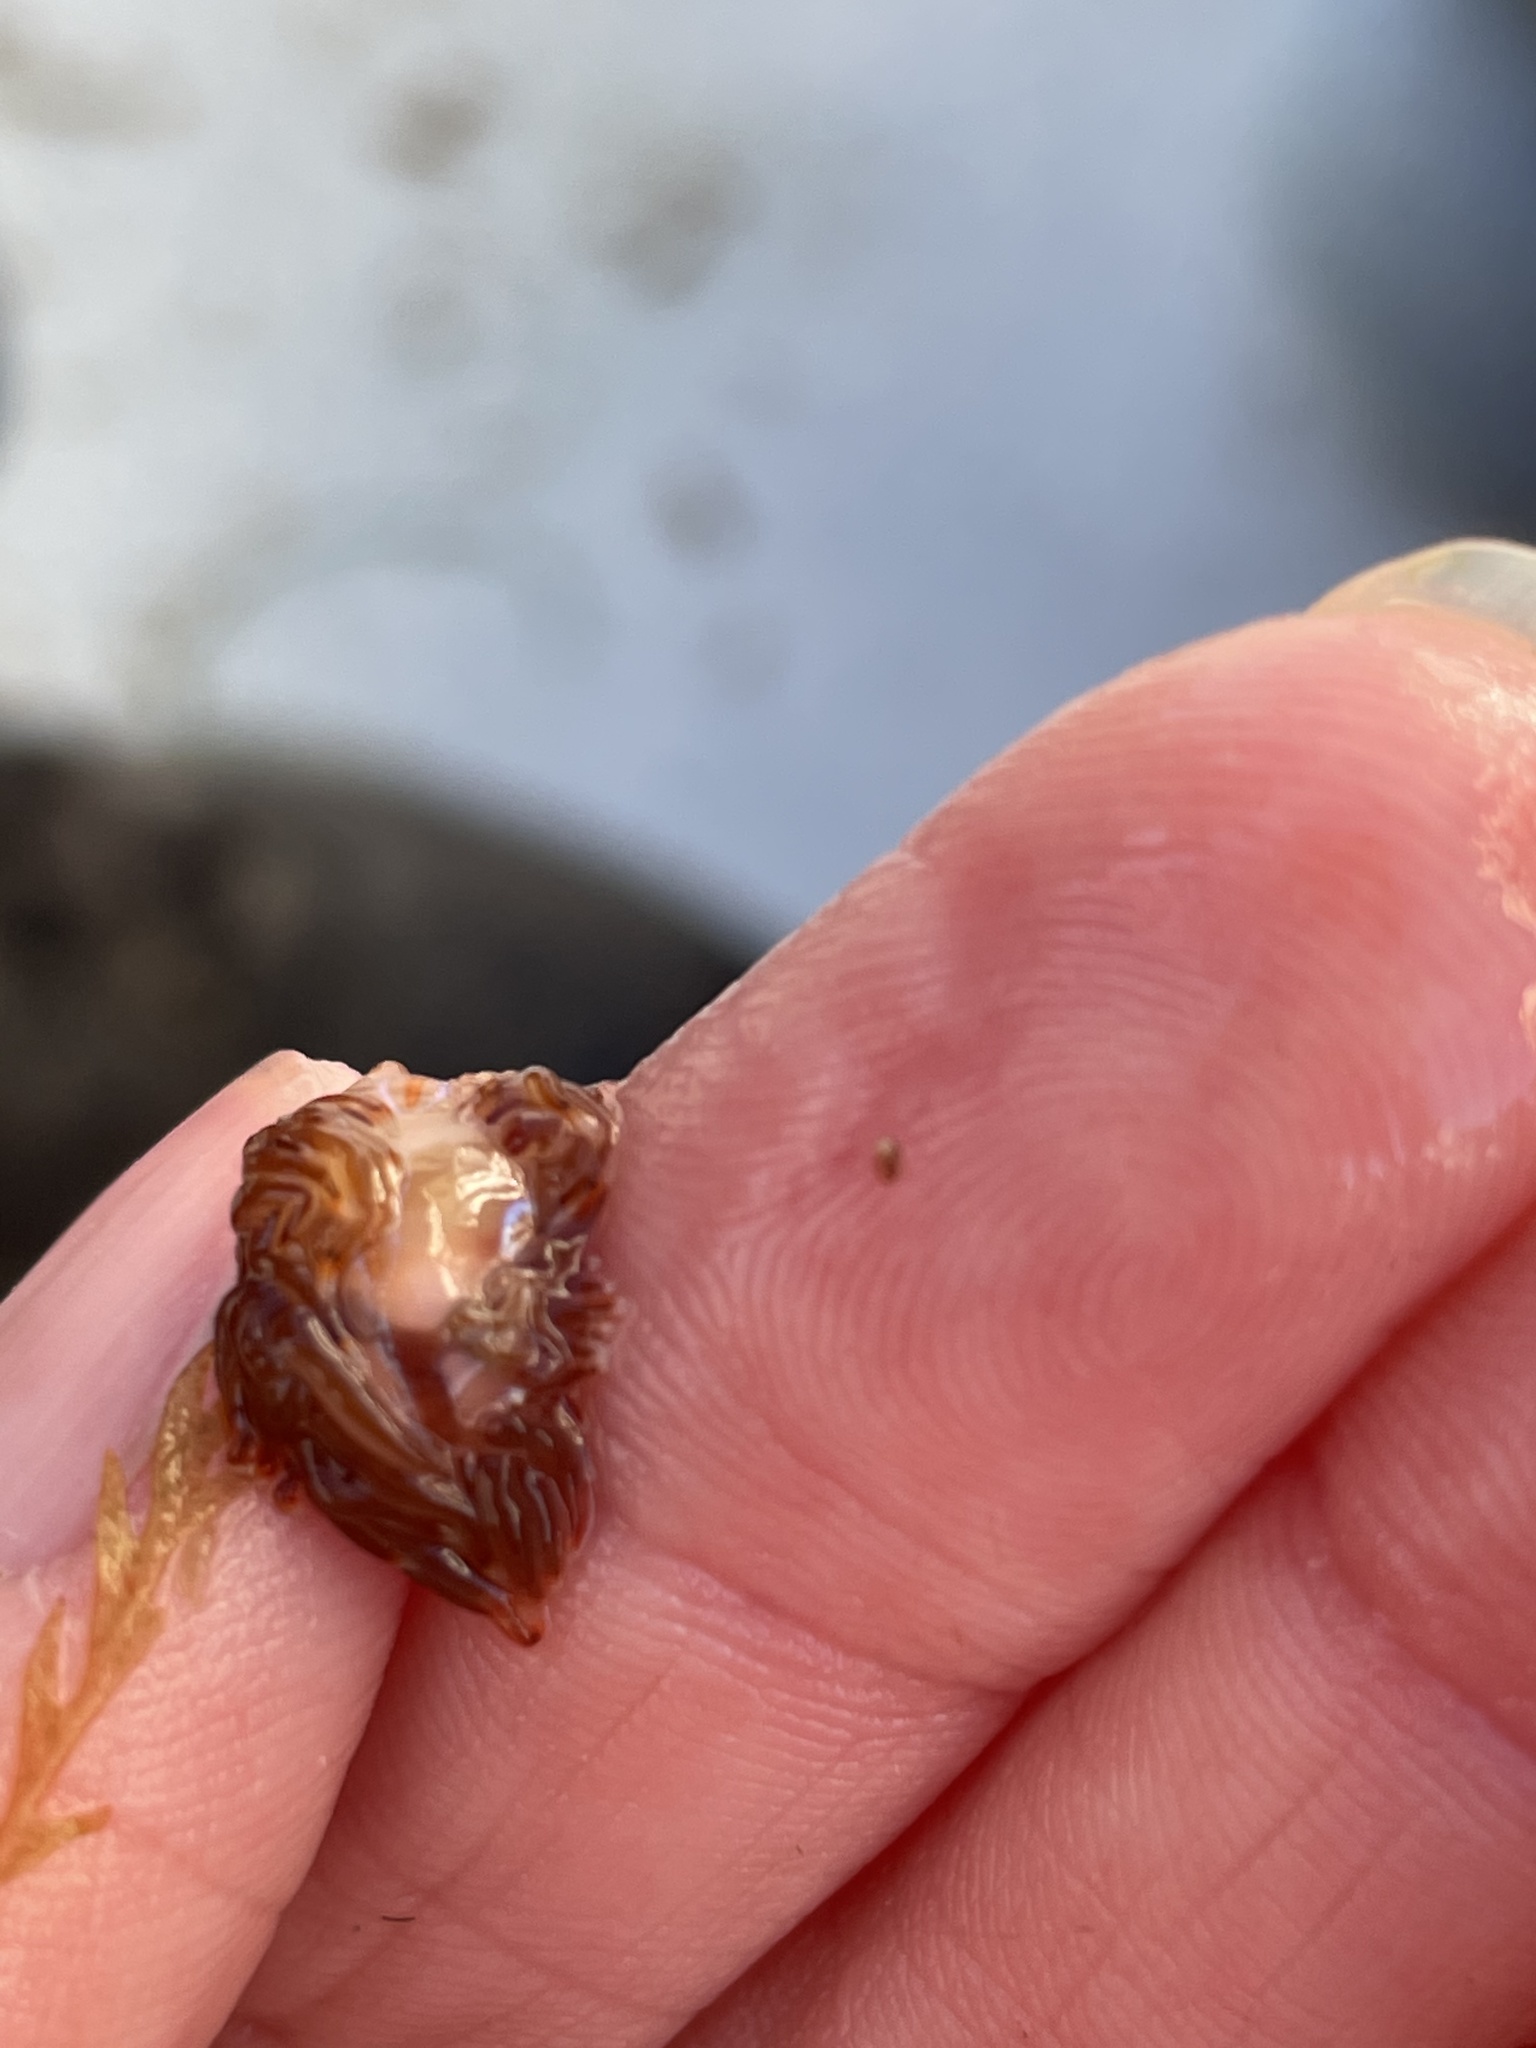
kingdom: Animalia
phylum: Mollusca
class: Gastropoda
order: Nudibranchia
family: Myrrhinidae
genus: Hermissenda
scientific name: Hermissenda opalescens
